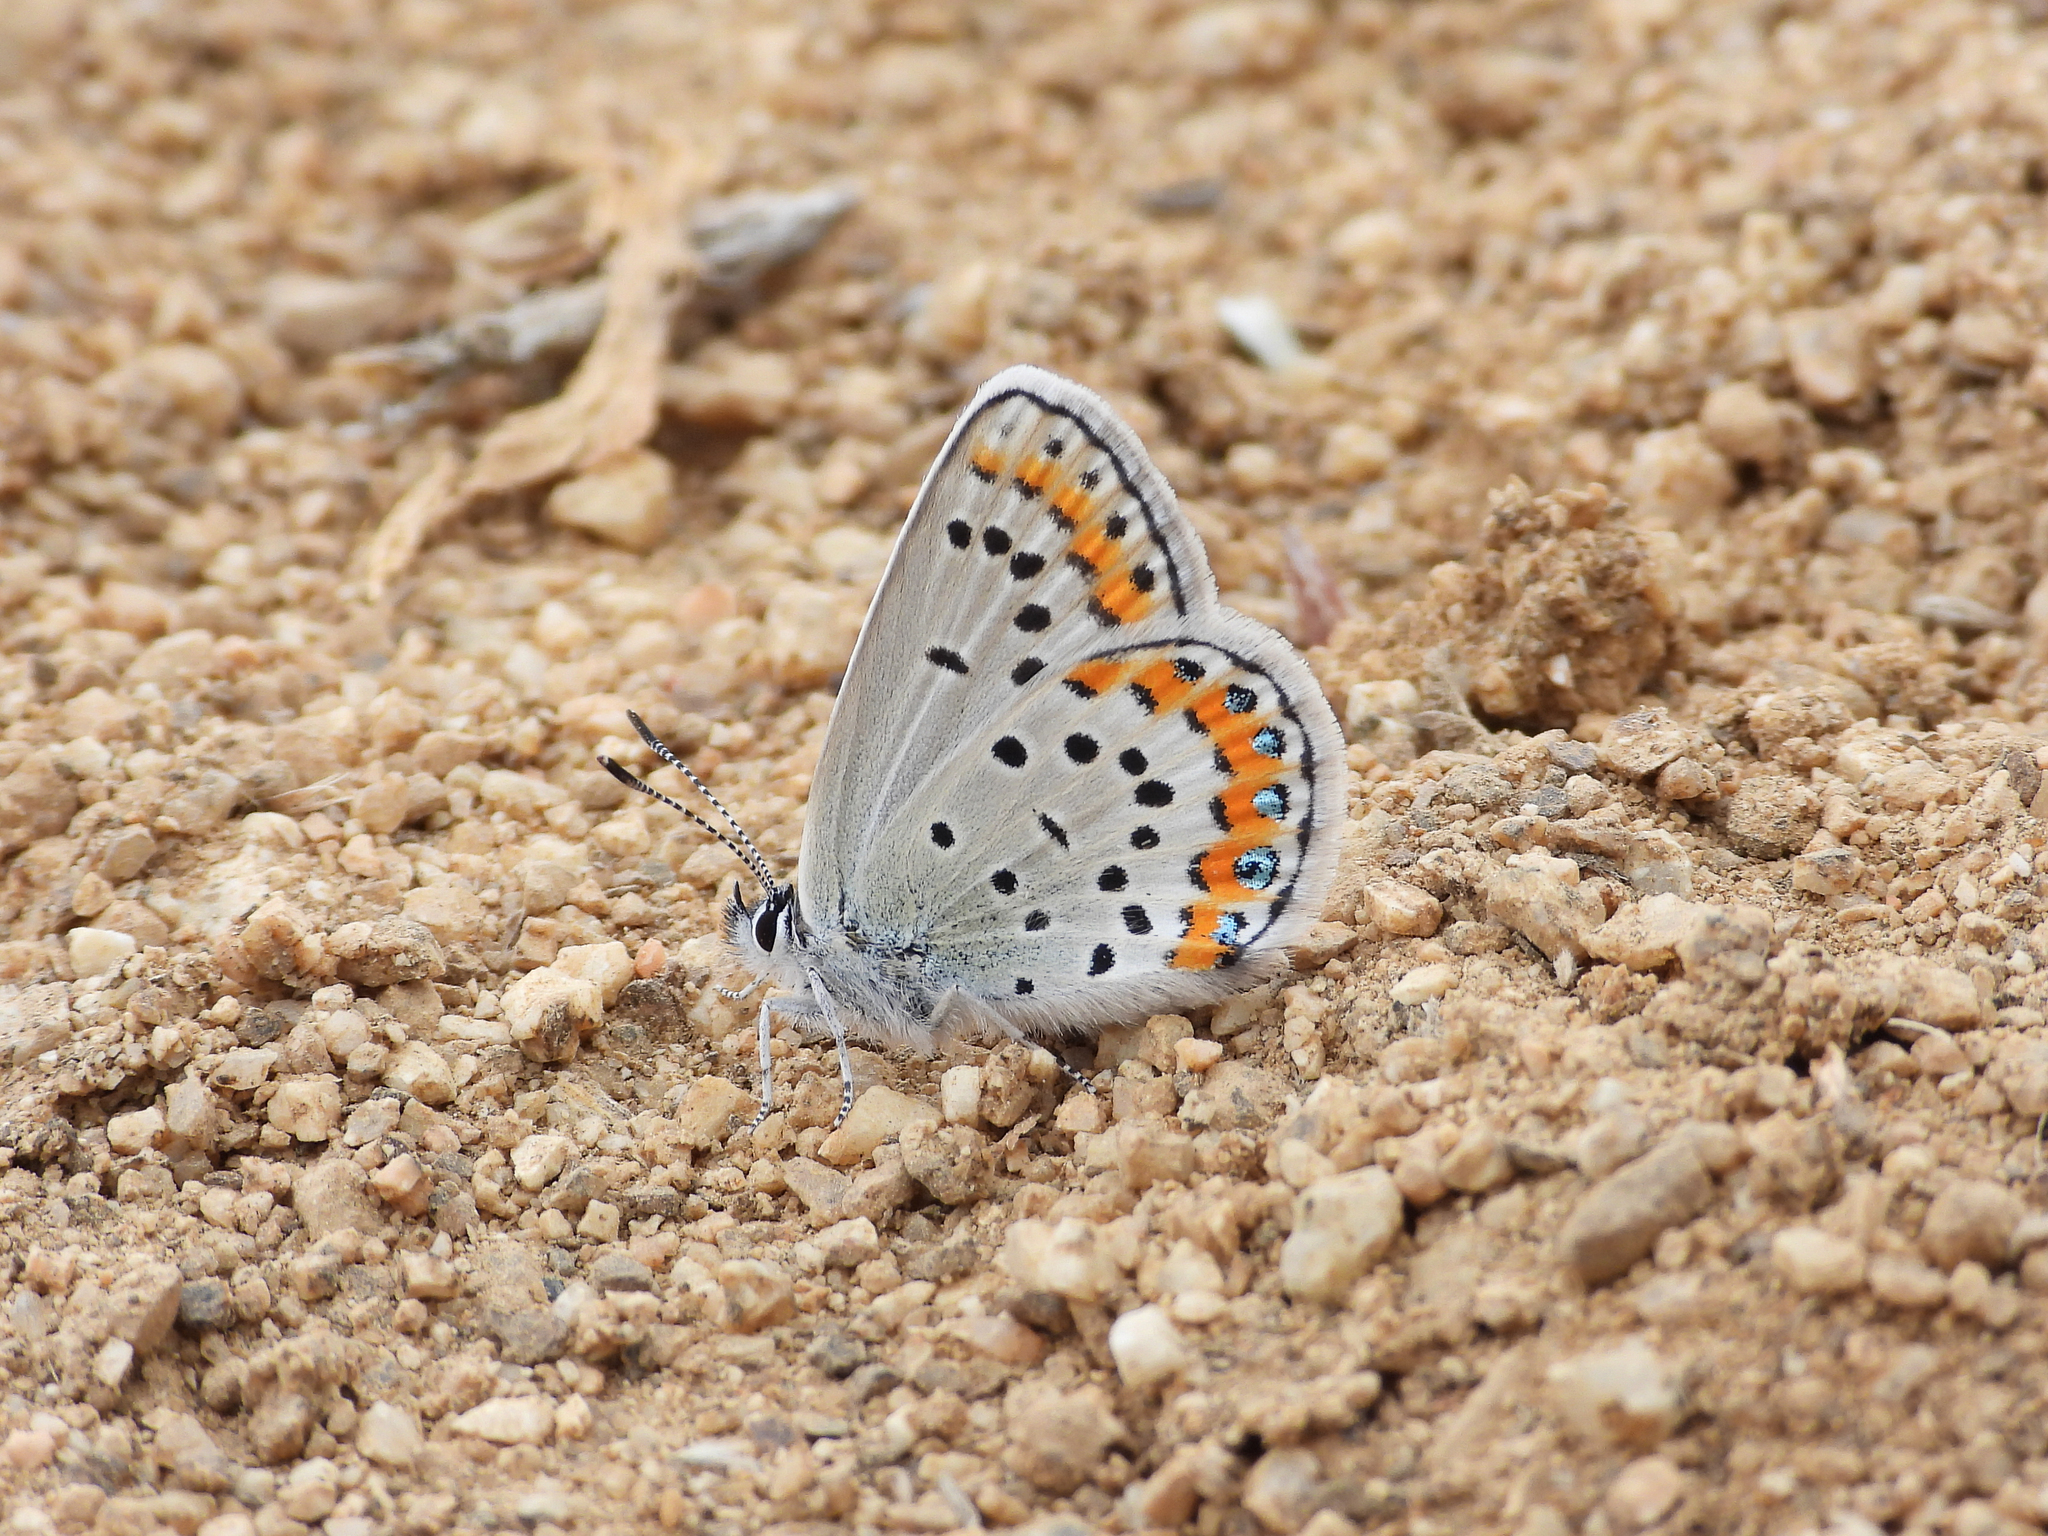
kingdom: Animalia
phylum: Arthropoda
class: Insecta
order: Lepidoptera
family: Lycaenidae
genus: Lycaeides
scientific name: Lycaeides melissa
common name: Melissa blue
